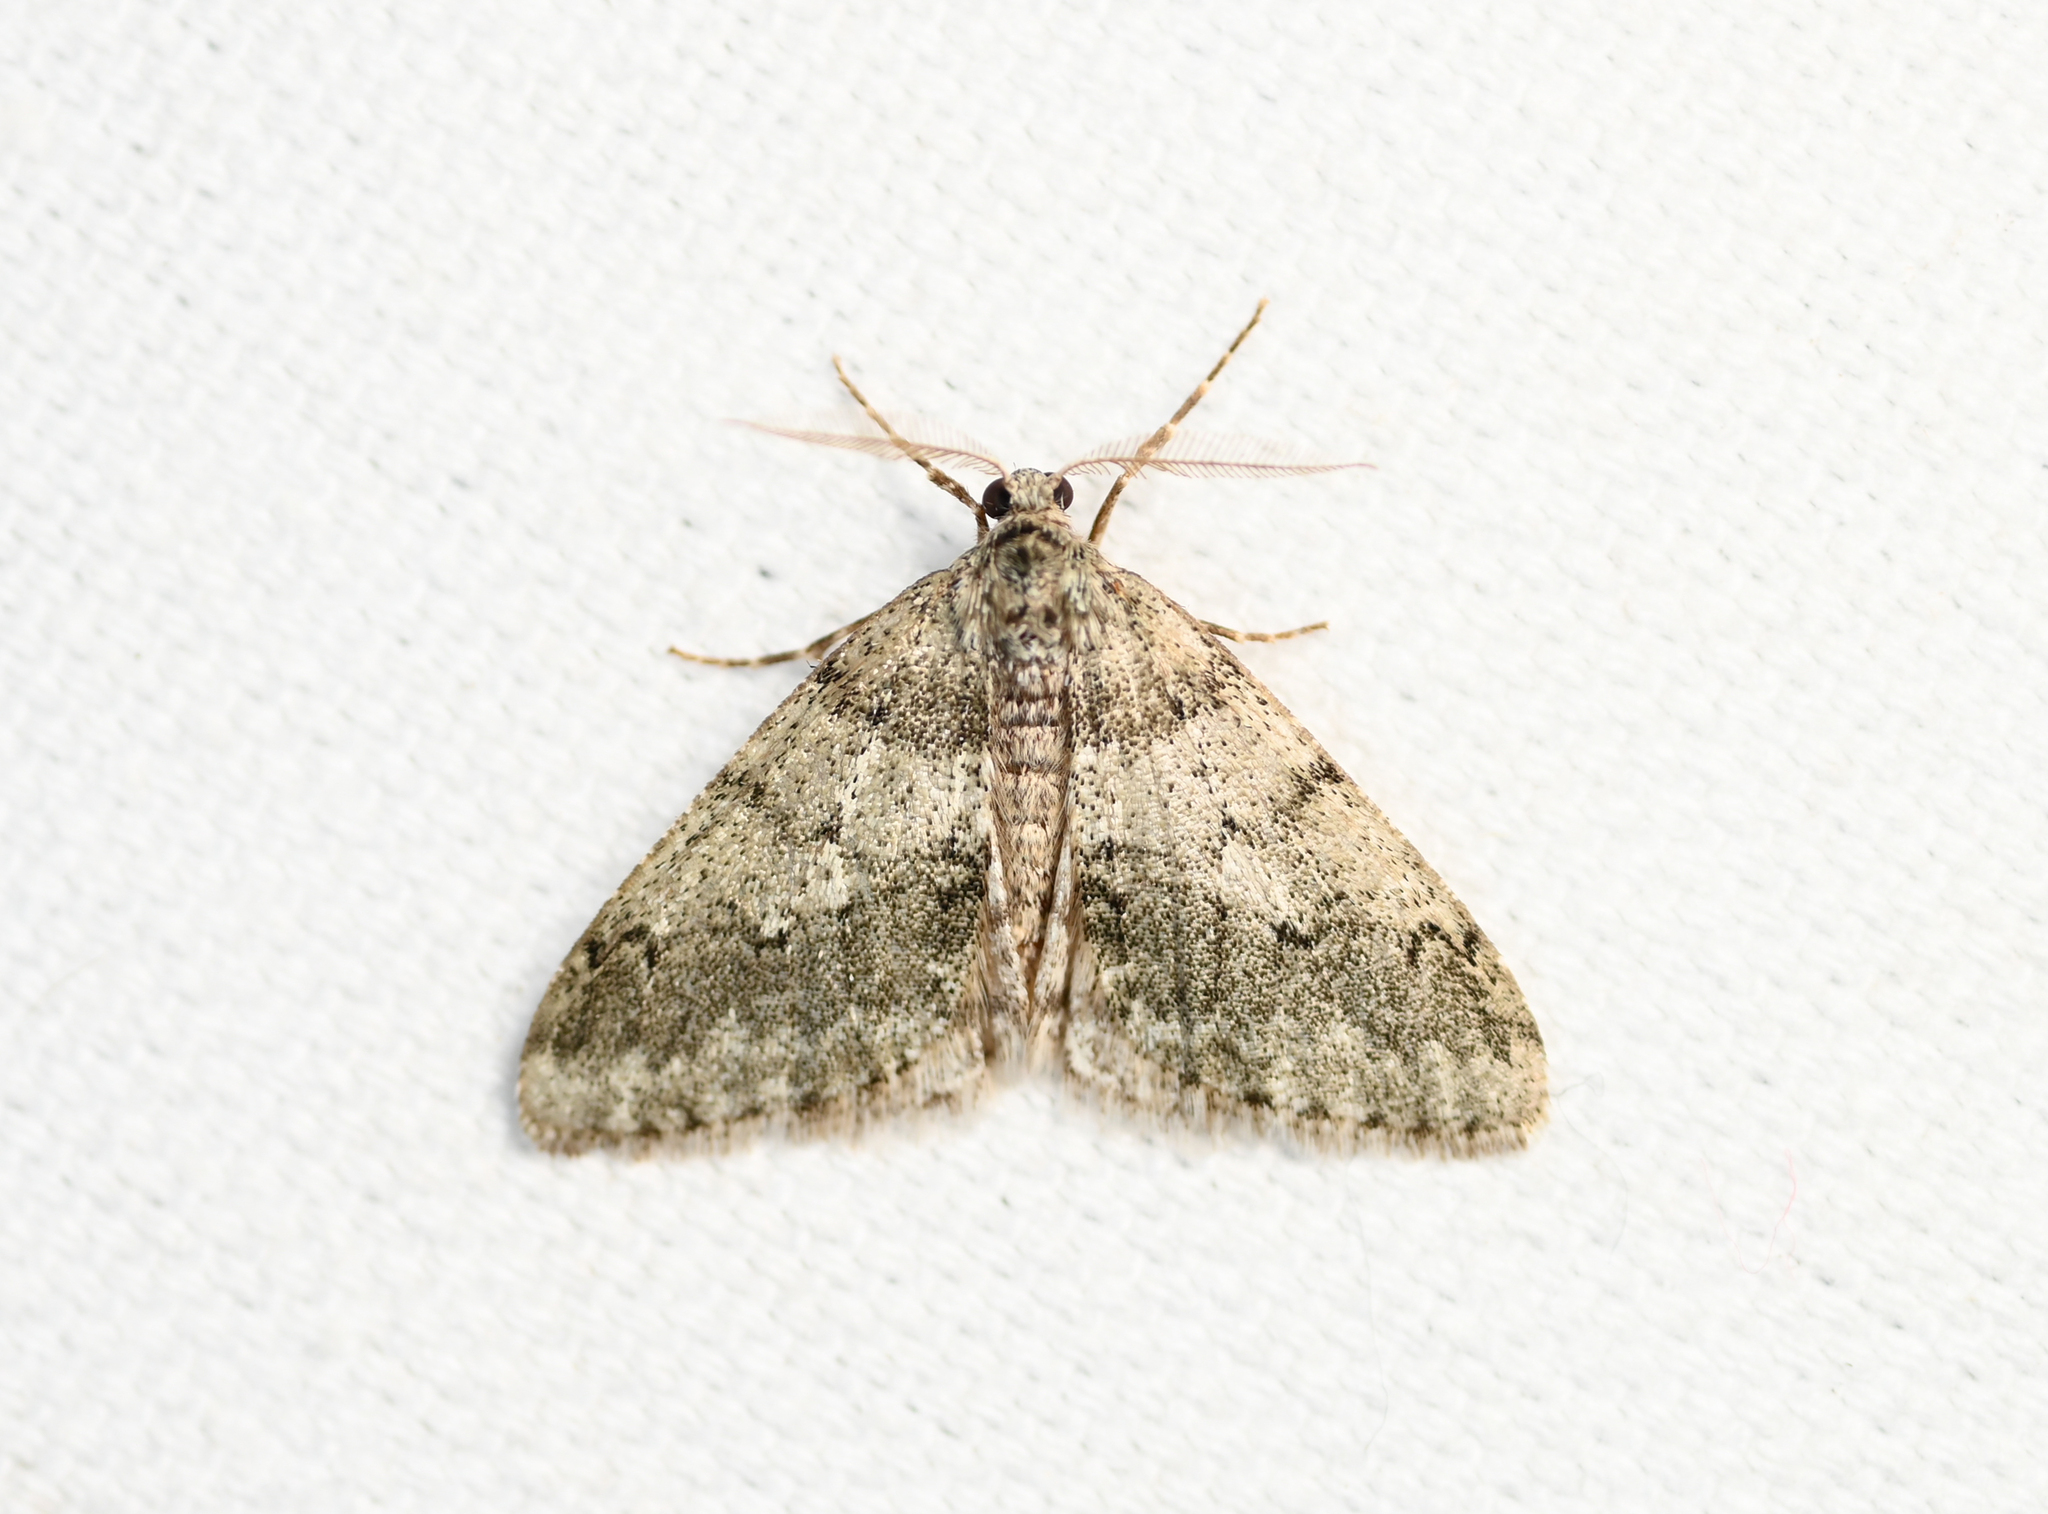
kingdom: Animalia
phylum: Arthropoda
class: Insecta
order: Lepidoptera
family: Geometridae
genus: Phigalia
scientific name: Phigalia strigataria
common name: Small phigalia
